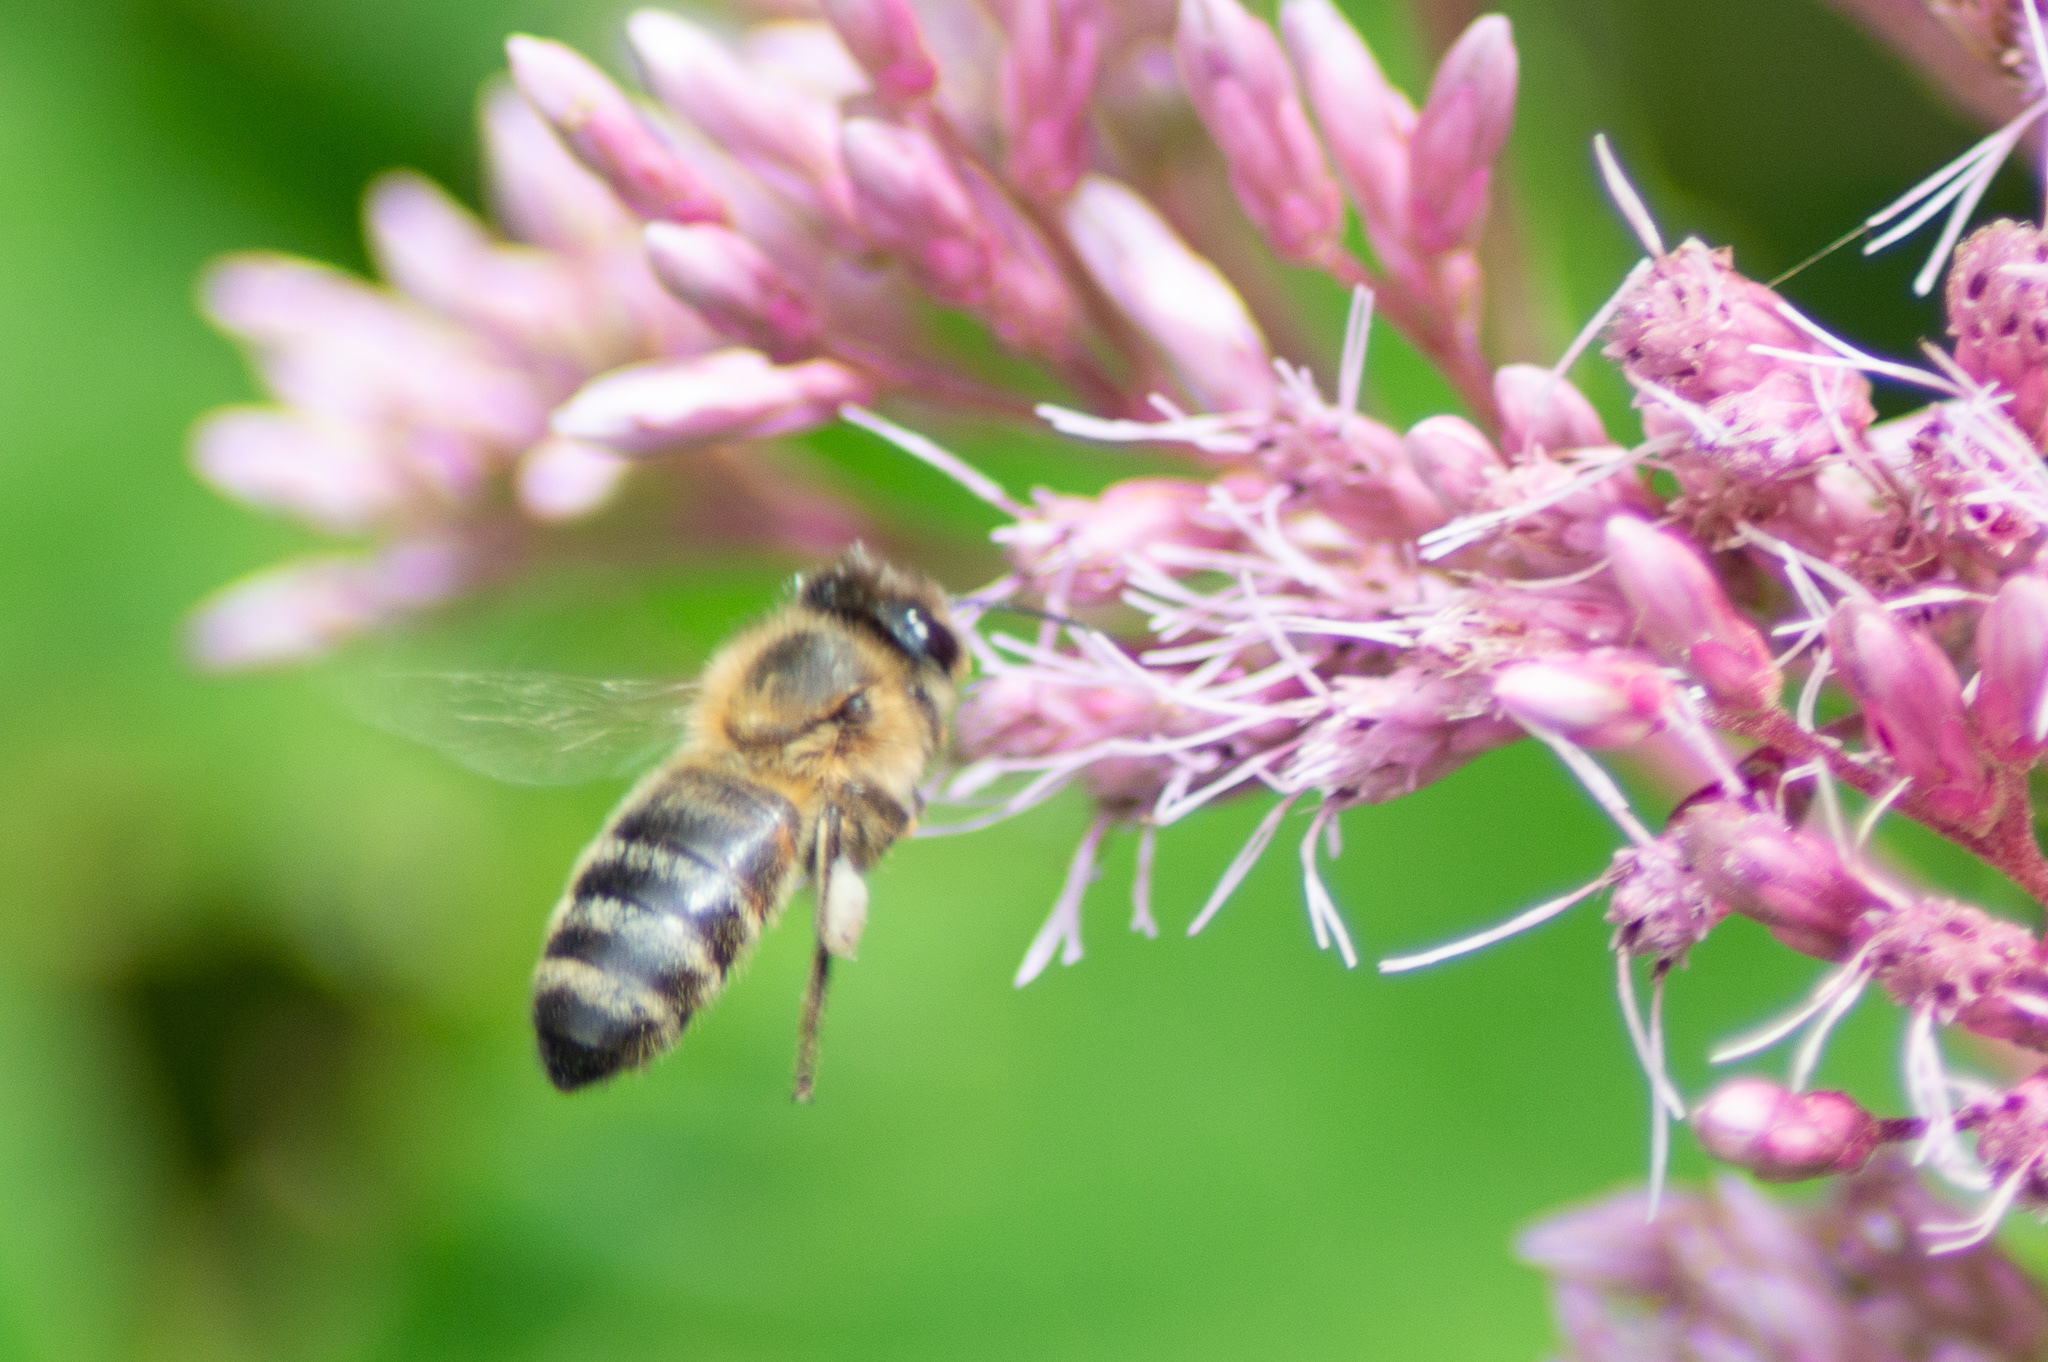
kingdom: Animalia
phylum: Arthropoda
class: Insecta
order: Hymenoptera
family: Apidae
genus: Apis
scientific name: Apis mellifera
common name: Honey bee
